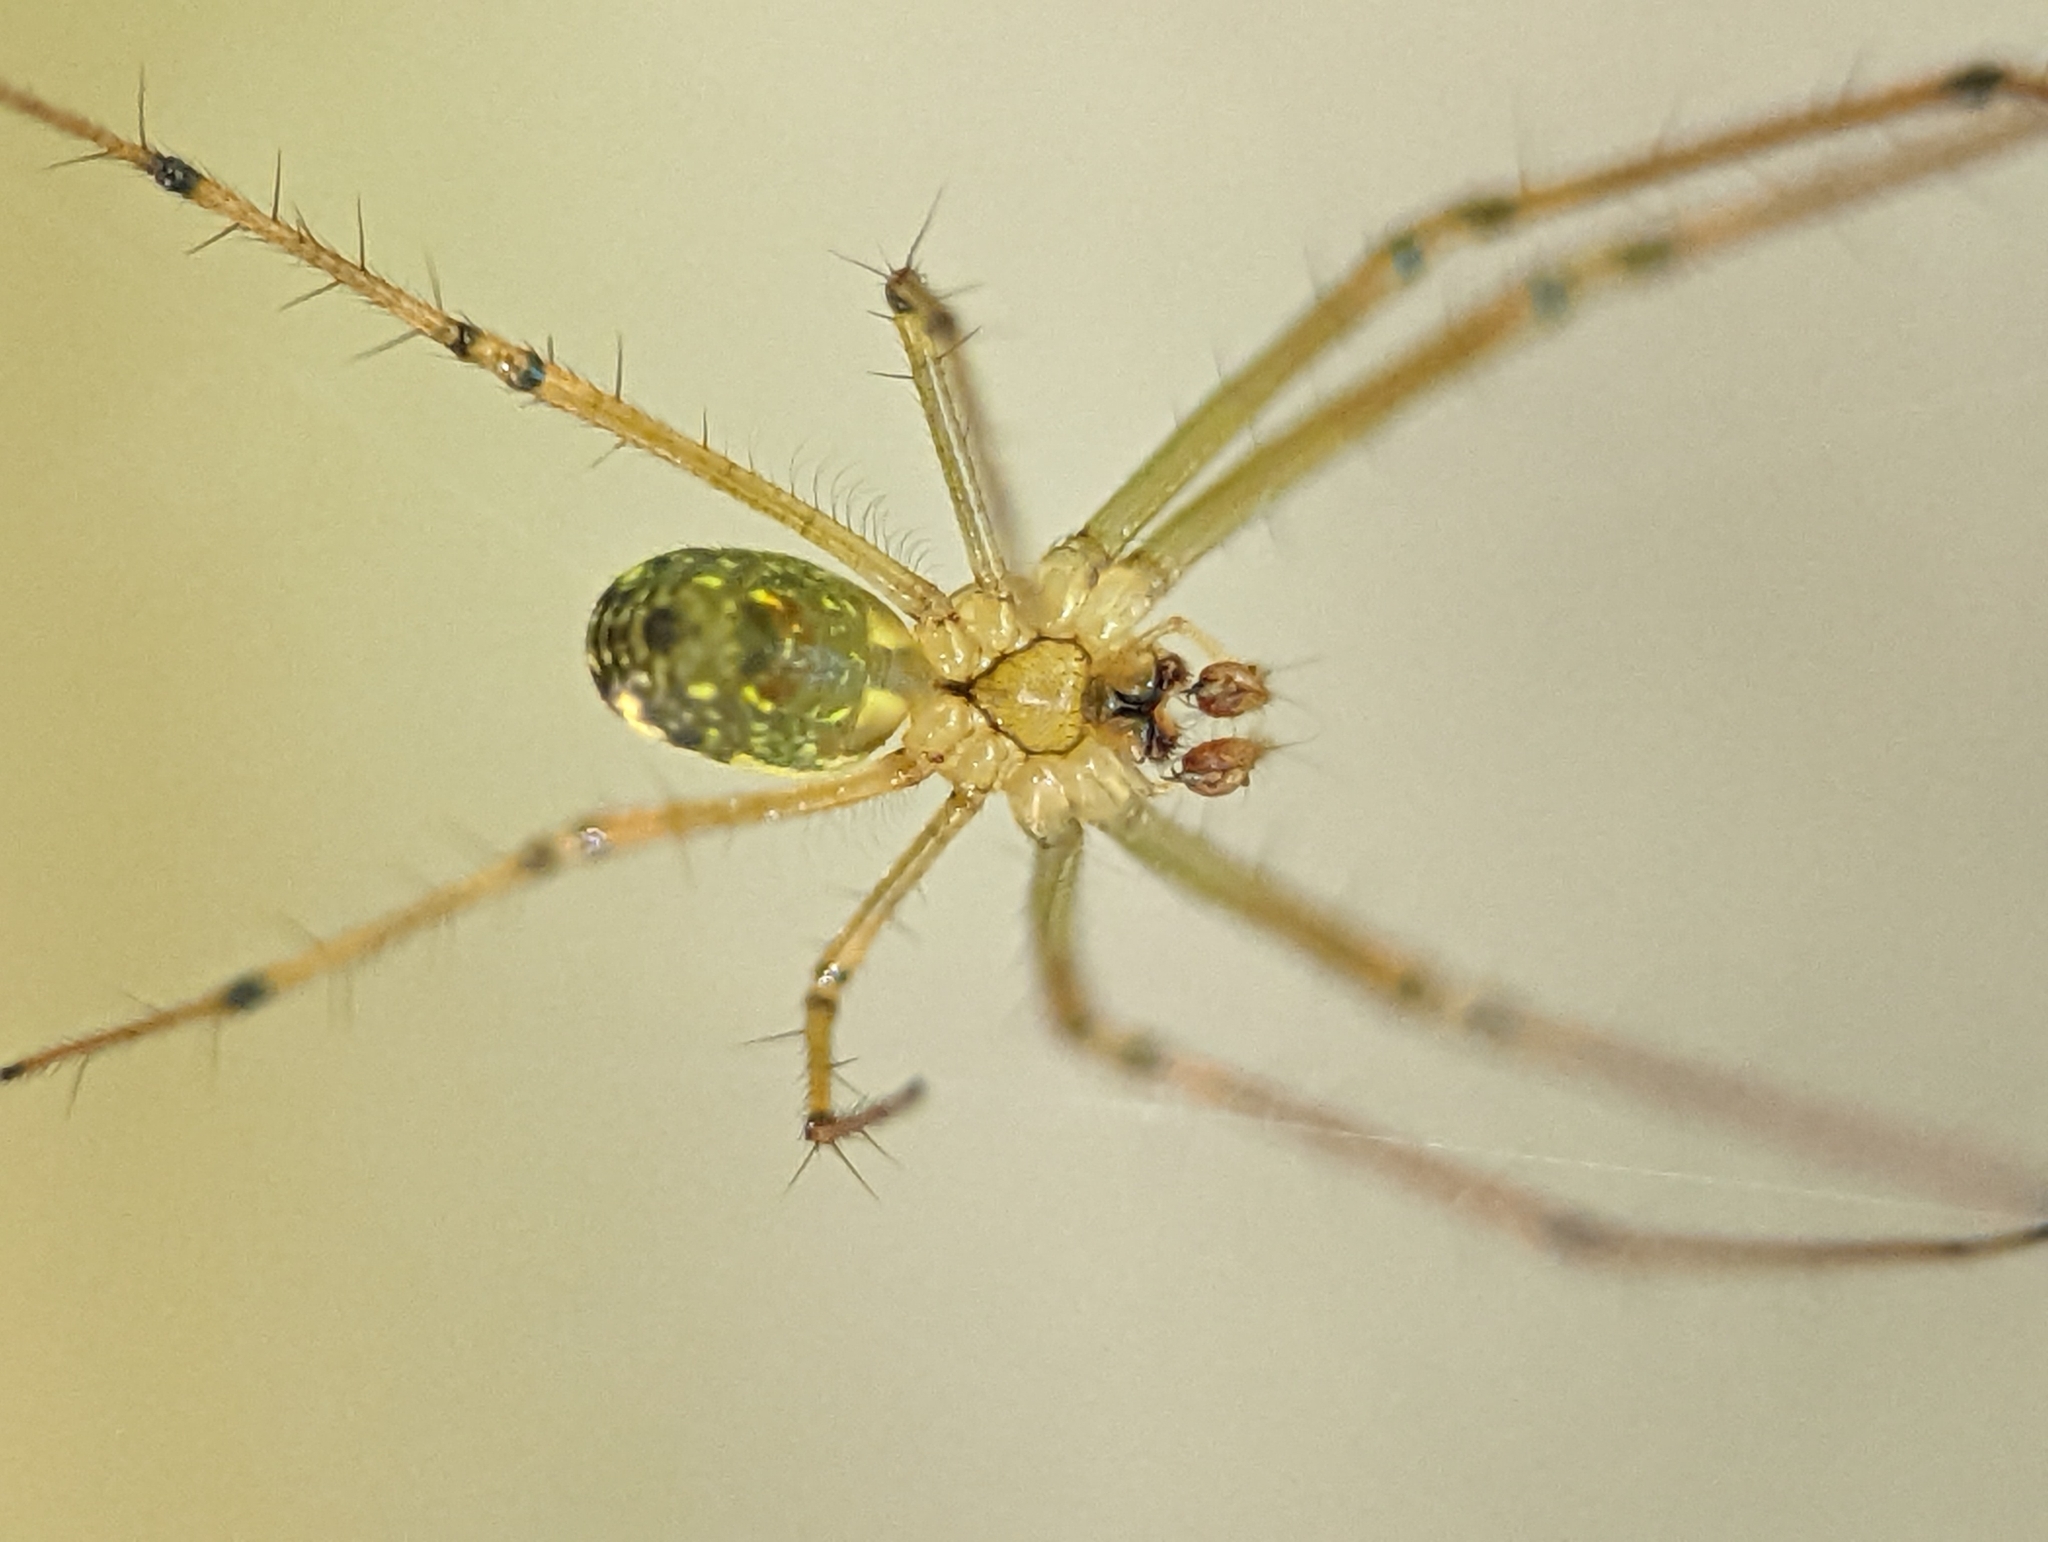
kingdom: Animalia
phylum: Arthropoda
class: Arachnida
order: Araneae
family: Tetragnathidae
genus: Leucauge
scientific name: Leucauge venusta
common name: Longjawed orb weavers
